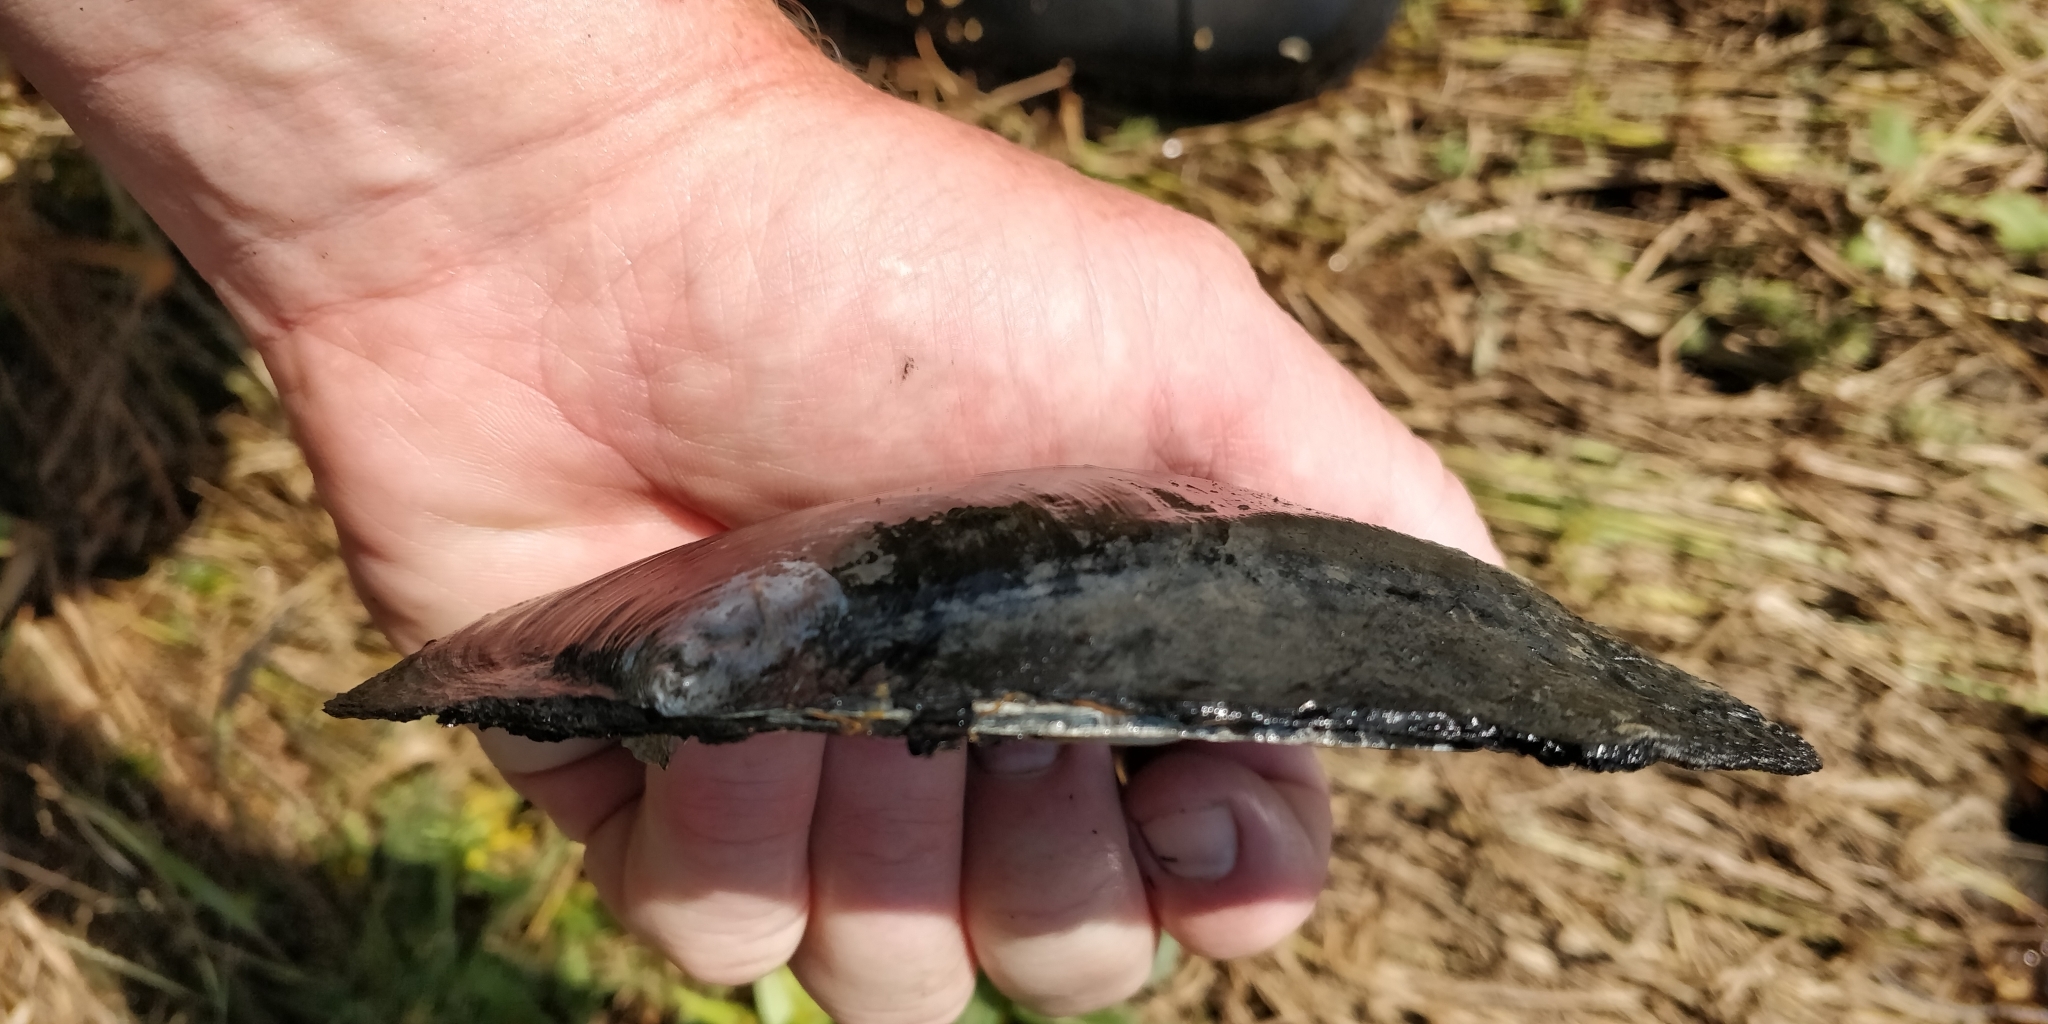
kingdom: Animalia
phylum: Mollusca
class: Bivalvia
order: Unionida
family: Unionidae
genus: Lasmigona
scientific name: Lasmigona complanata
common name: White heelsplitter
